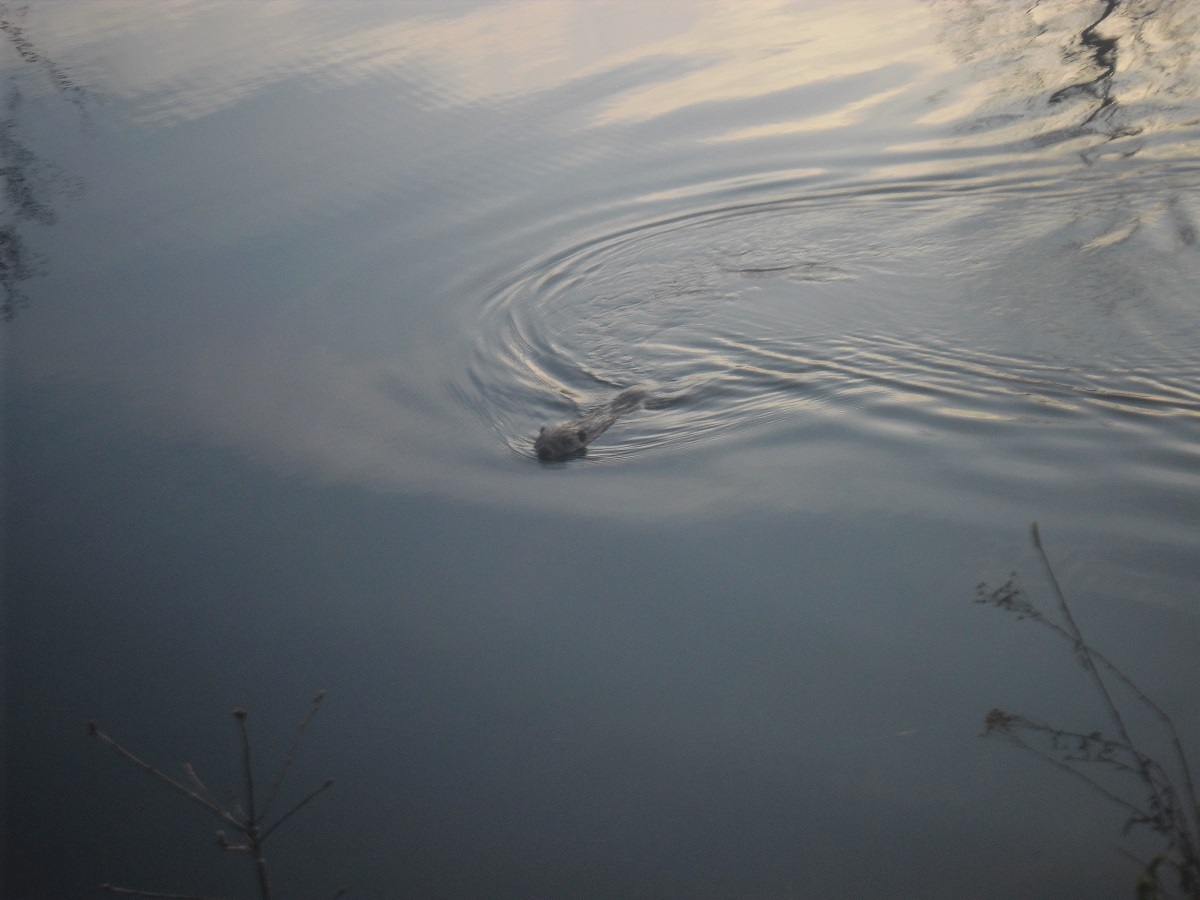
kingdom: Animalia
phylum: Chordata
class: Mammalia
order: Rodentia
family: Castoridae
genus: Castor
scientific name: Castor fiber
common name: Eurasian beaver
